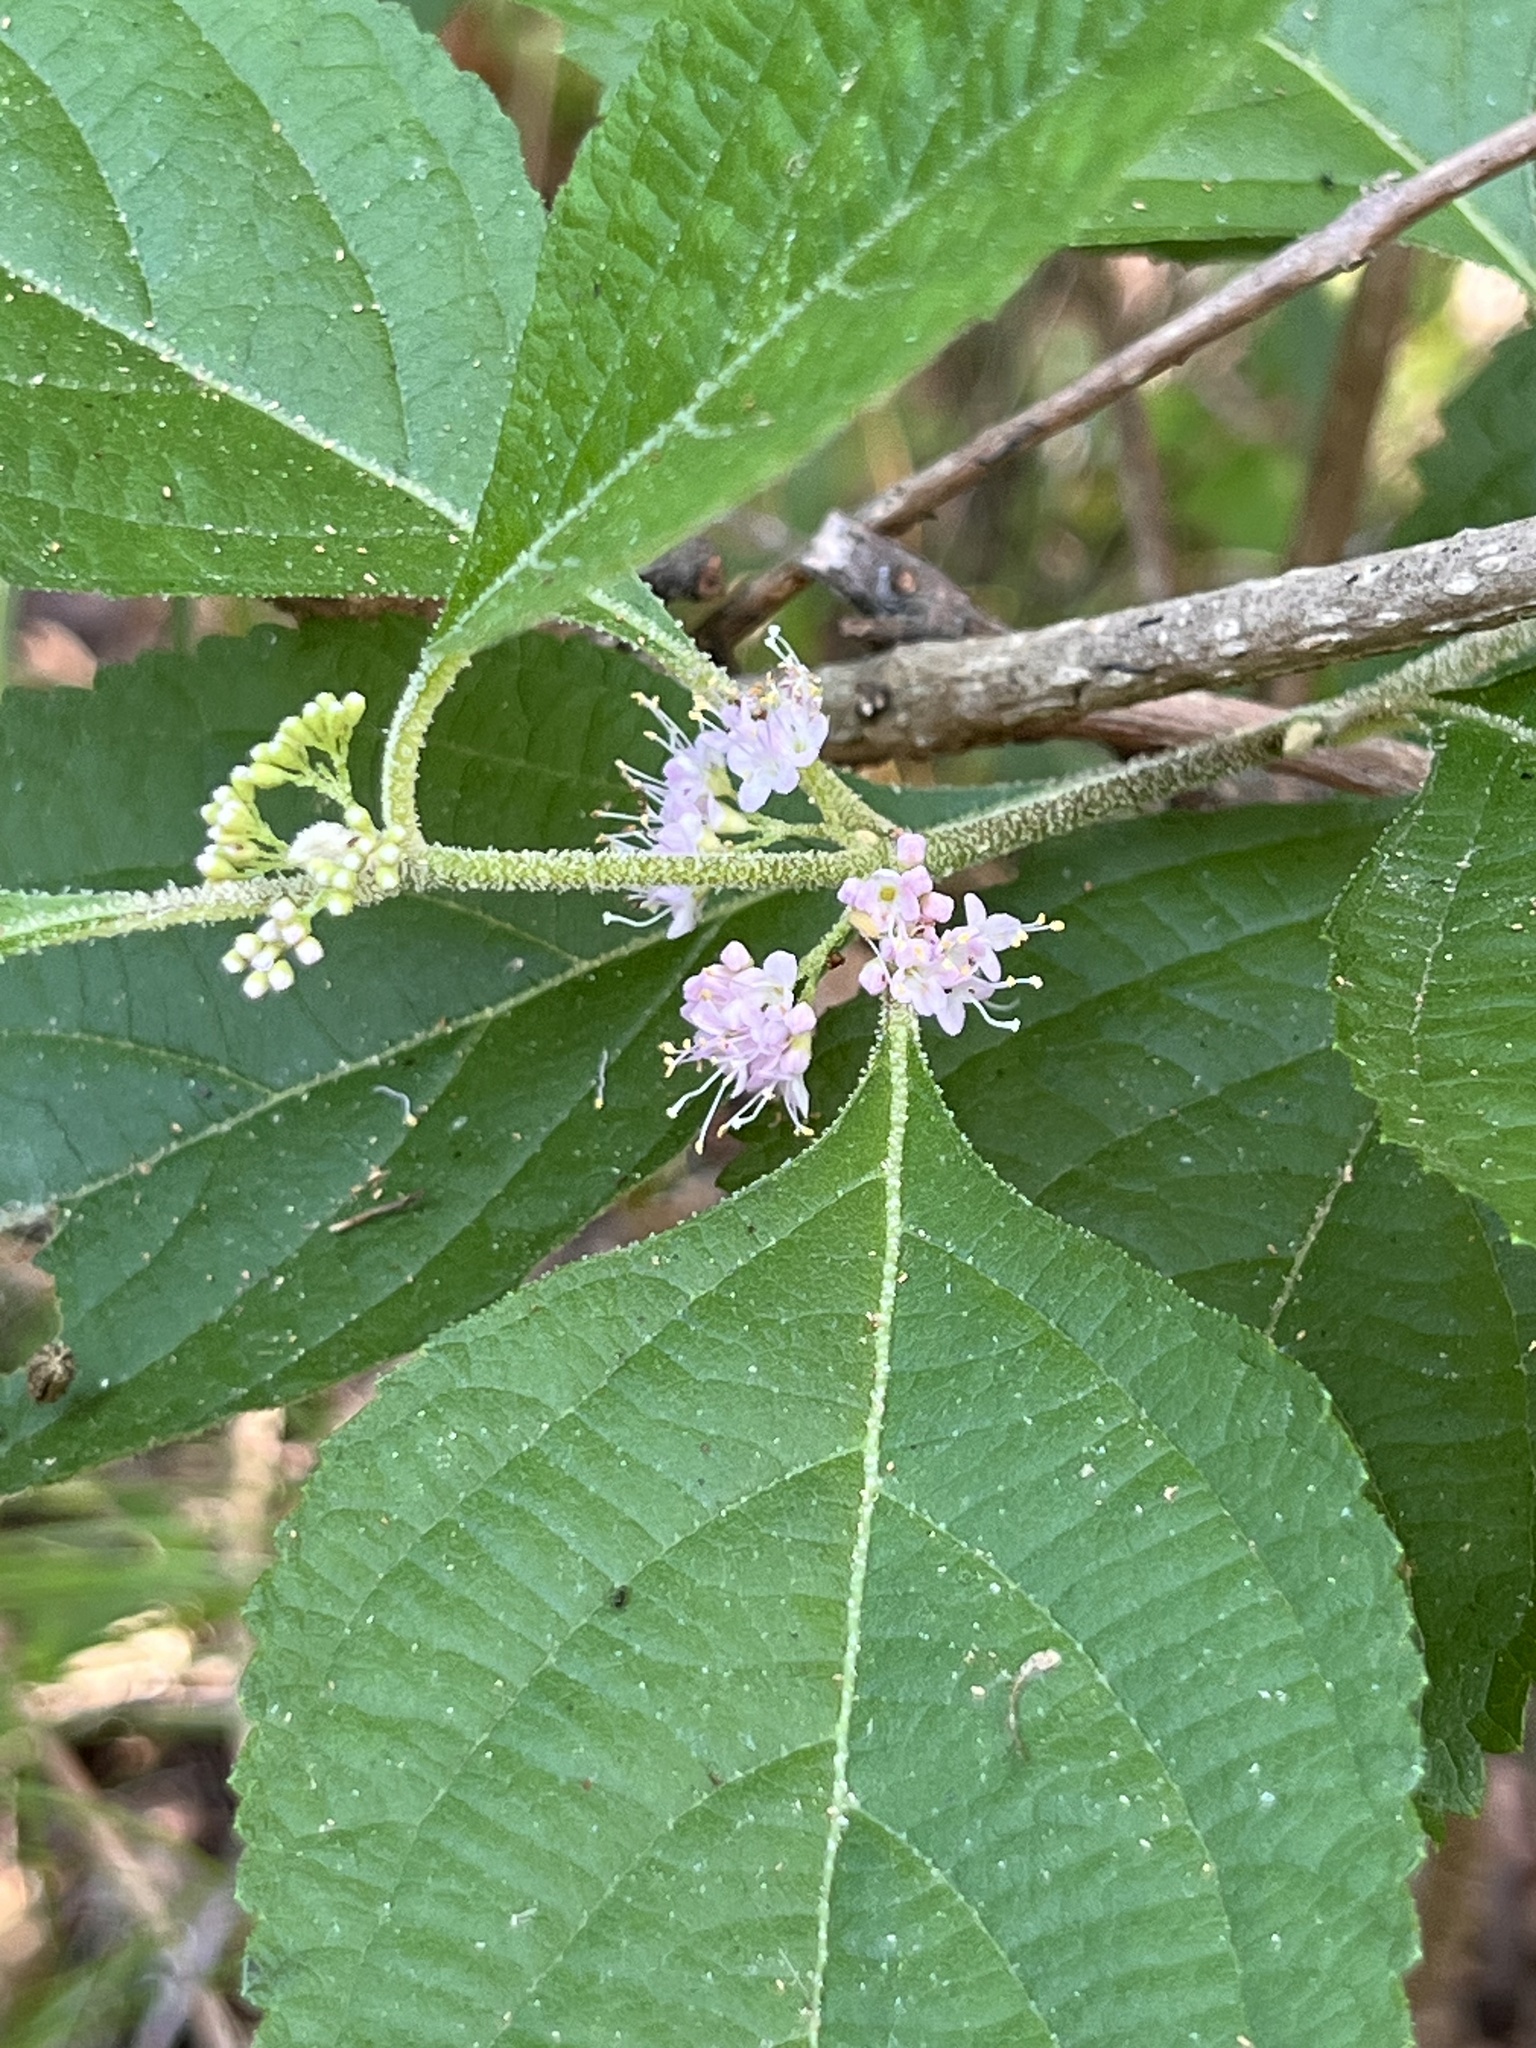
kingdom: Plantae
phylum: Tracheophyta
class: Magnoliopsida
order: Lamiales
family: Lamiaceae
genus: Callicarpa
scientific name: Callicarpa americana
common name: American beautyberry
